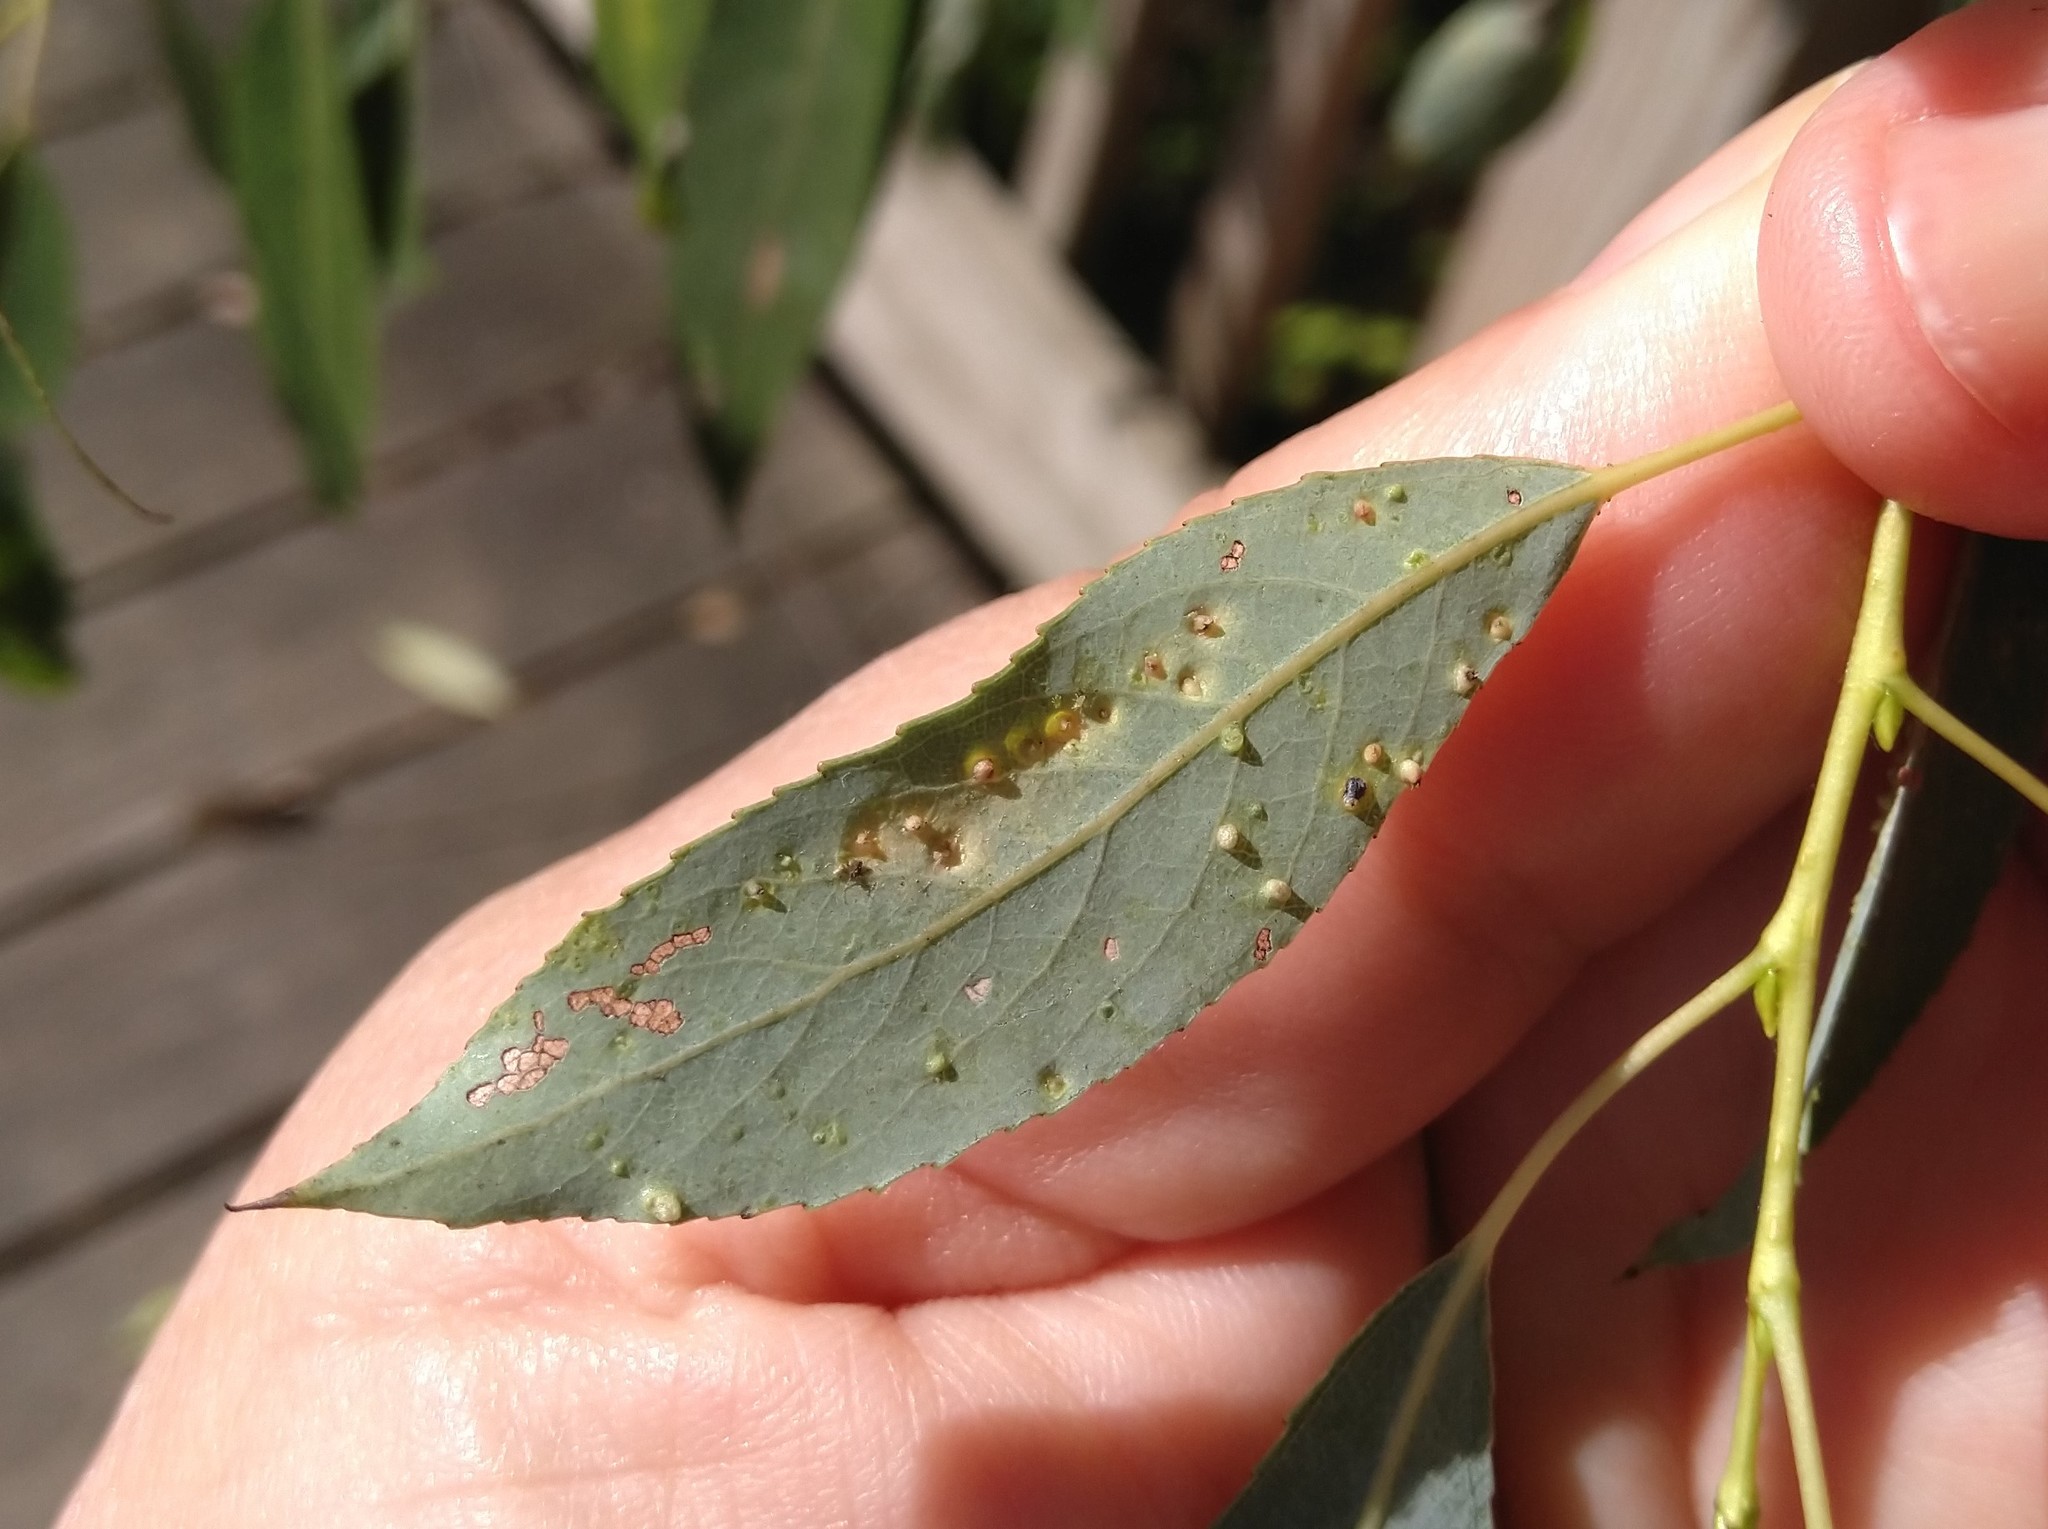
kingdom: Animalia
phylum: Arthropoda
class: Arachnida
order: Trombidiformes
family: Eriophyidae
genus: Aculus
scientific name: Aculus tetanothrix
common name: Willow bead gall mite
